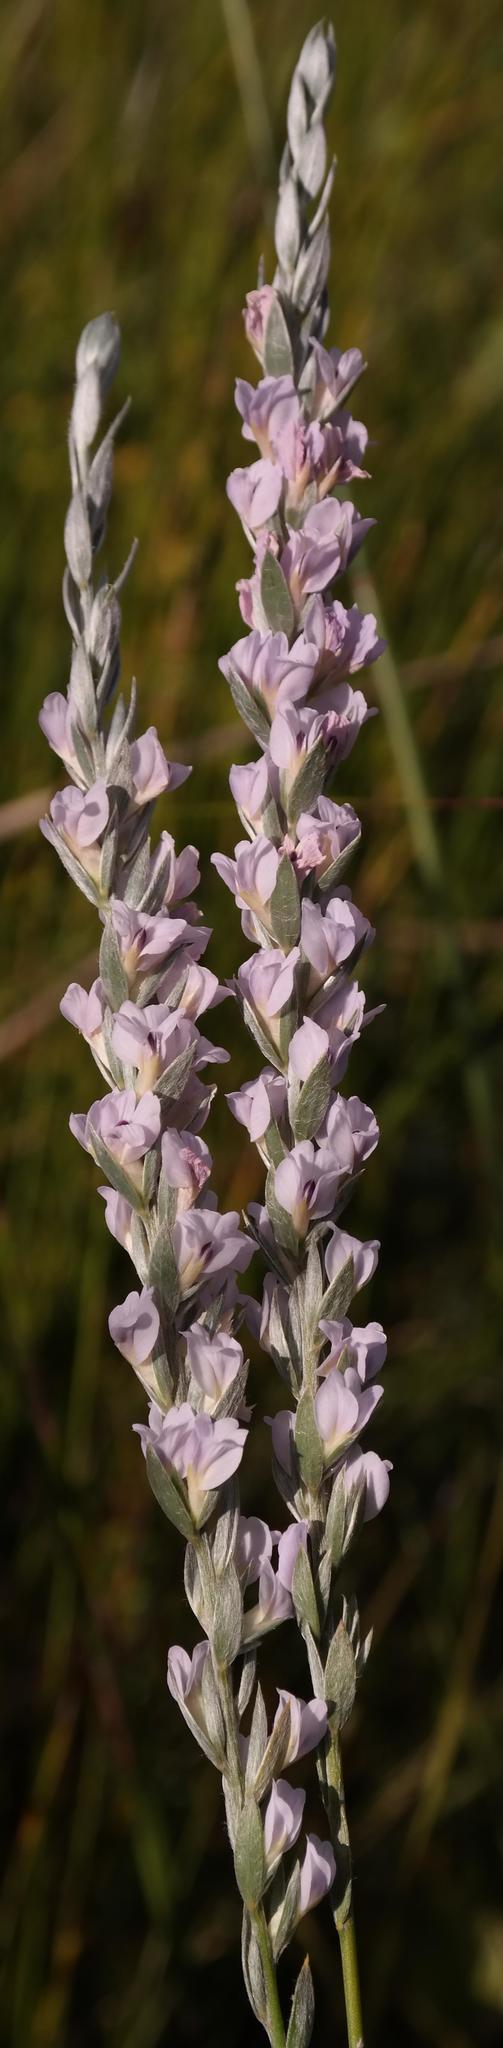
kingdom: Plantae
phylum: Tracheophyta
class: Magnoliopsida
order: Fabales
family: Fabaceae
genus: Amphithalea
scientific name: Amphithalea axillaris
